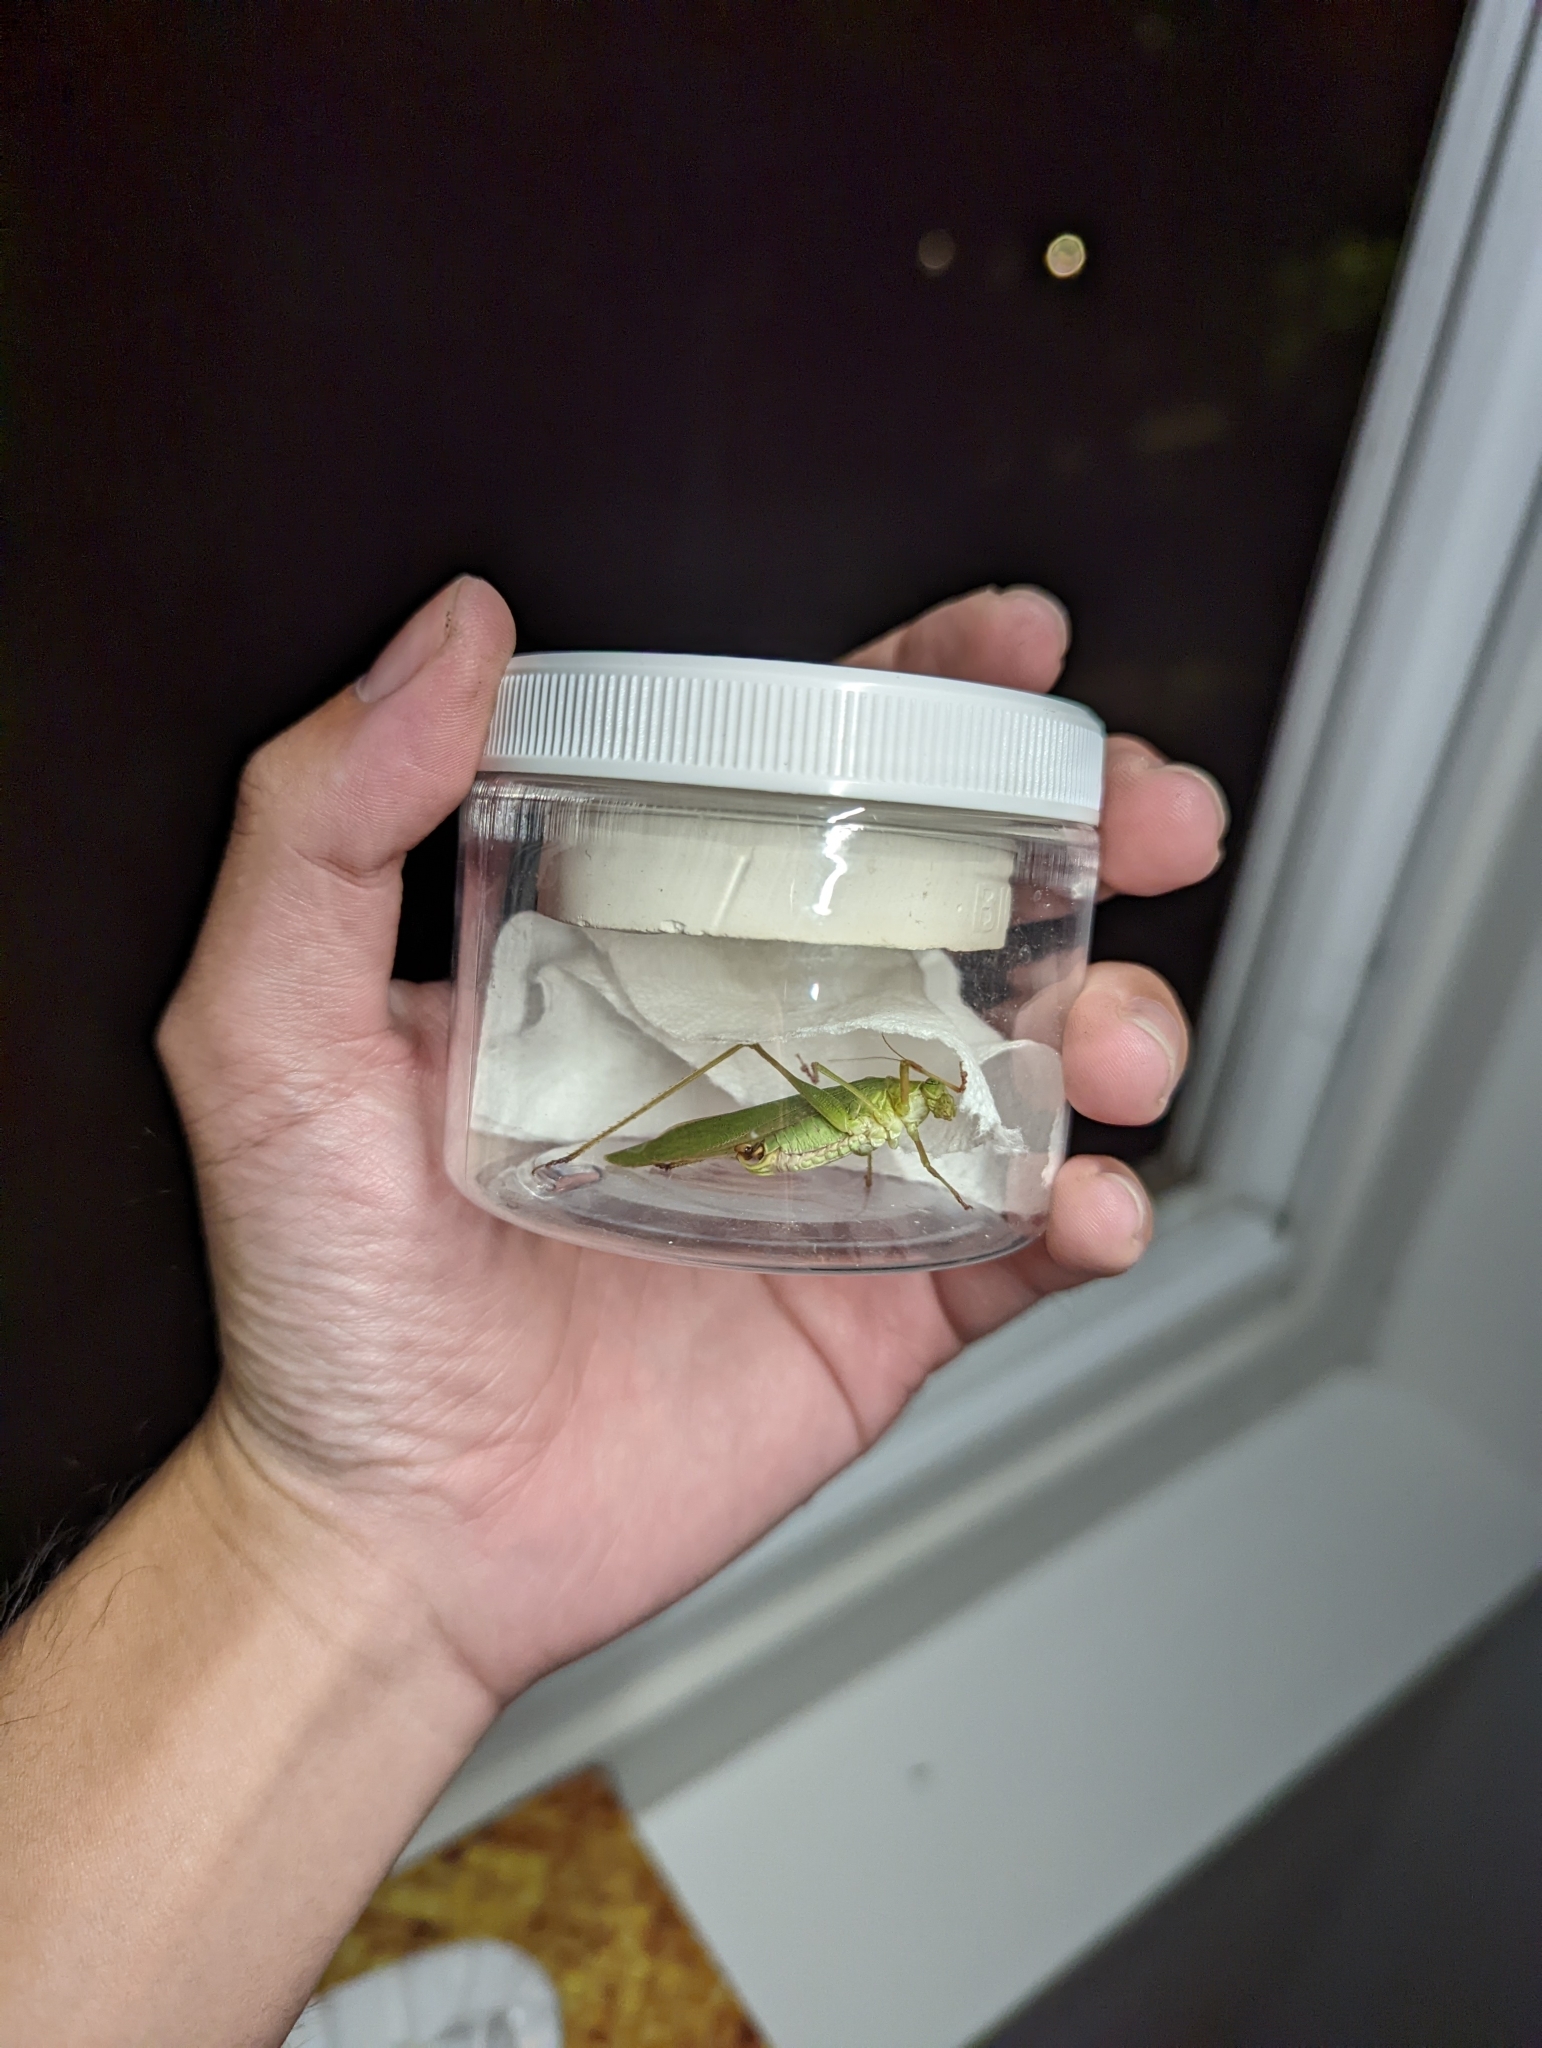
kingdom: Animalia
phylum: Arthropoda
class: Insecta
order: Orthoptera
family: Tettigoniidae
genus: Scudderia
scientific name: Scudderia furcata
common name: Fork-tailed bush katydid
